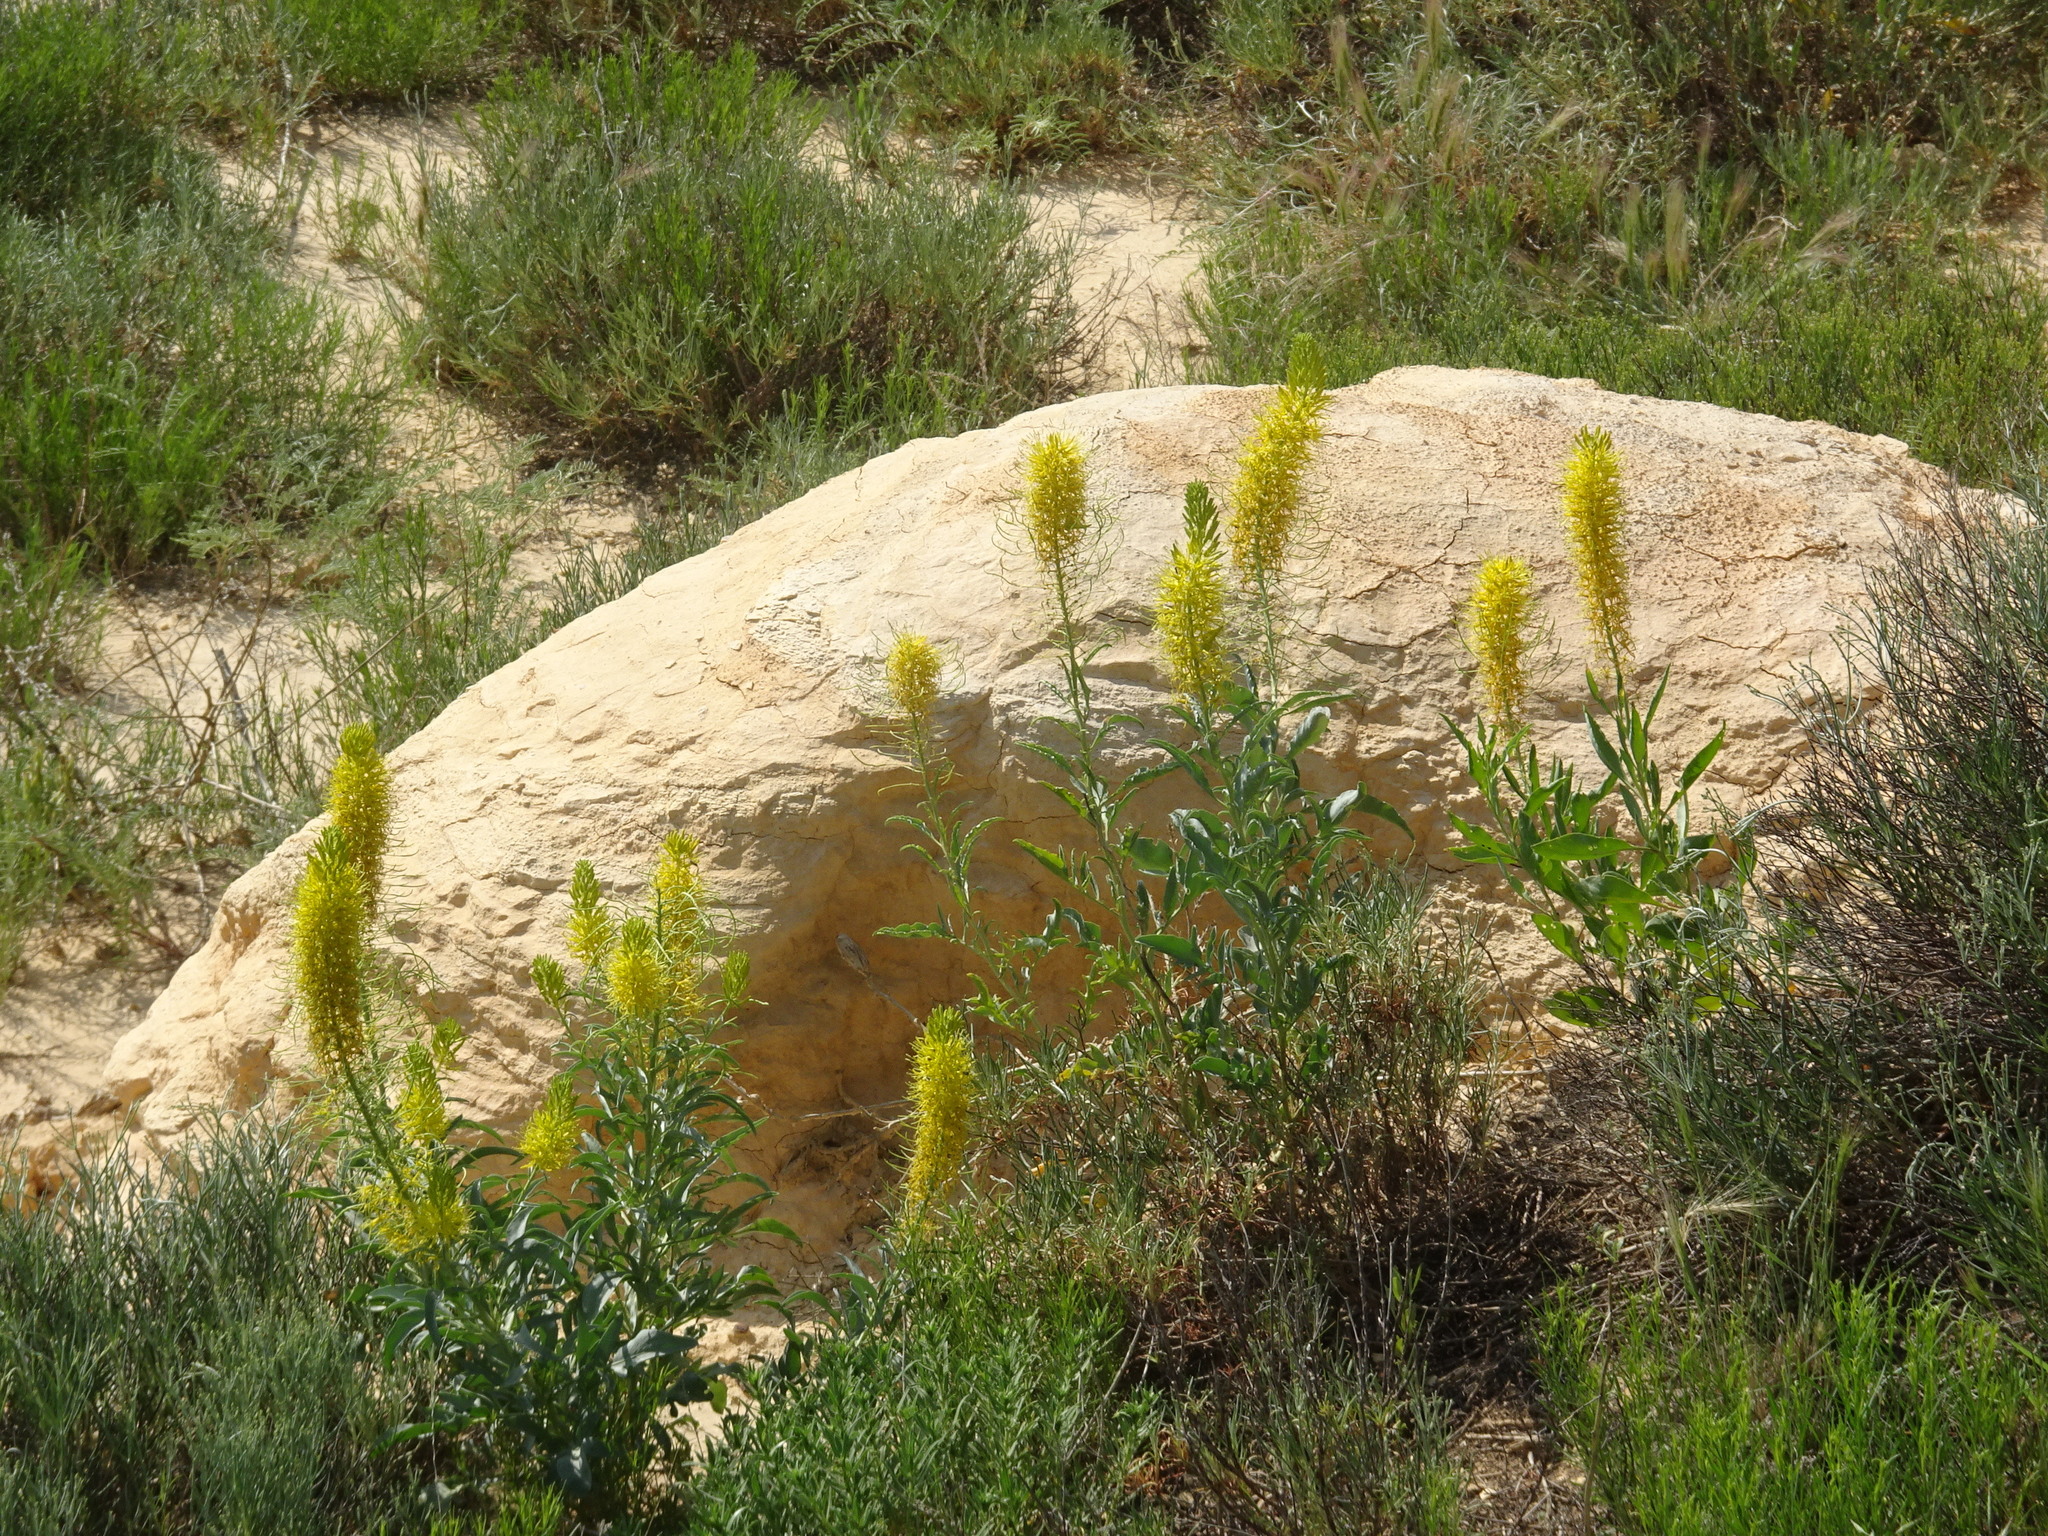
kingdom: Plantae
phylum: Tracheophyta
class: Magnoliopsida
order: Brassicales
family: Brassicaceae
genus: Stanleya
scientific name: Stanleya pinnata
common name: Prince's-plume
